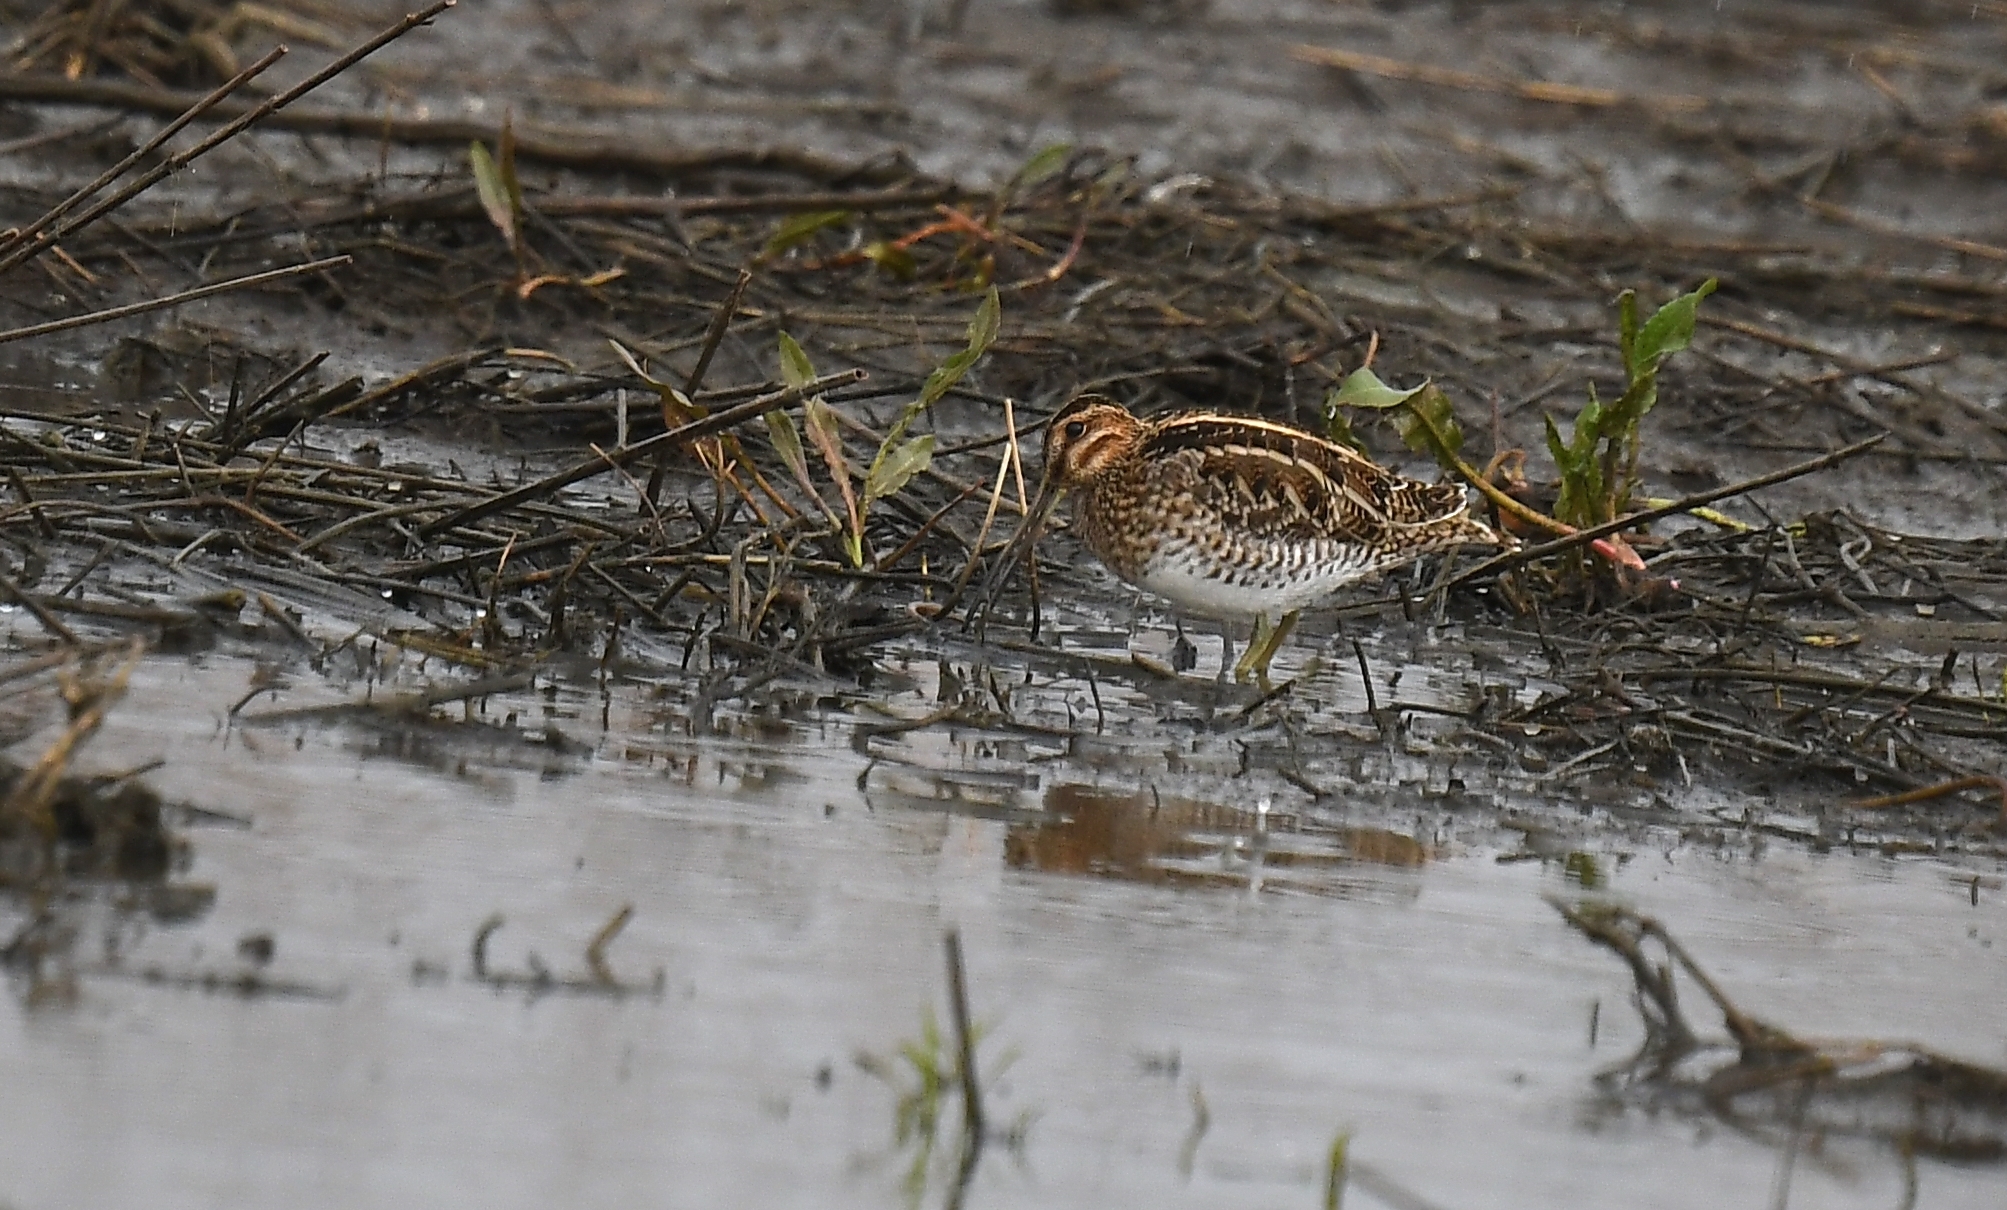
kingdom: Animalia
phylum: Chordata
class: Aves
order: Charadriiformes
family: Scolopacidae
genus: Gallinago
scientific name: Gallinago delicata
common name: Wilson's snipe
